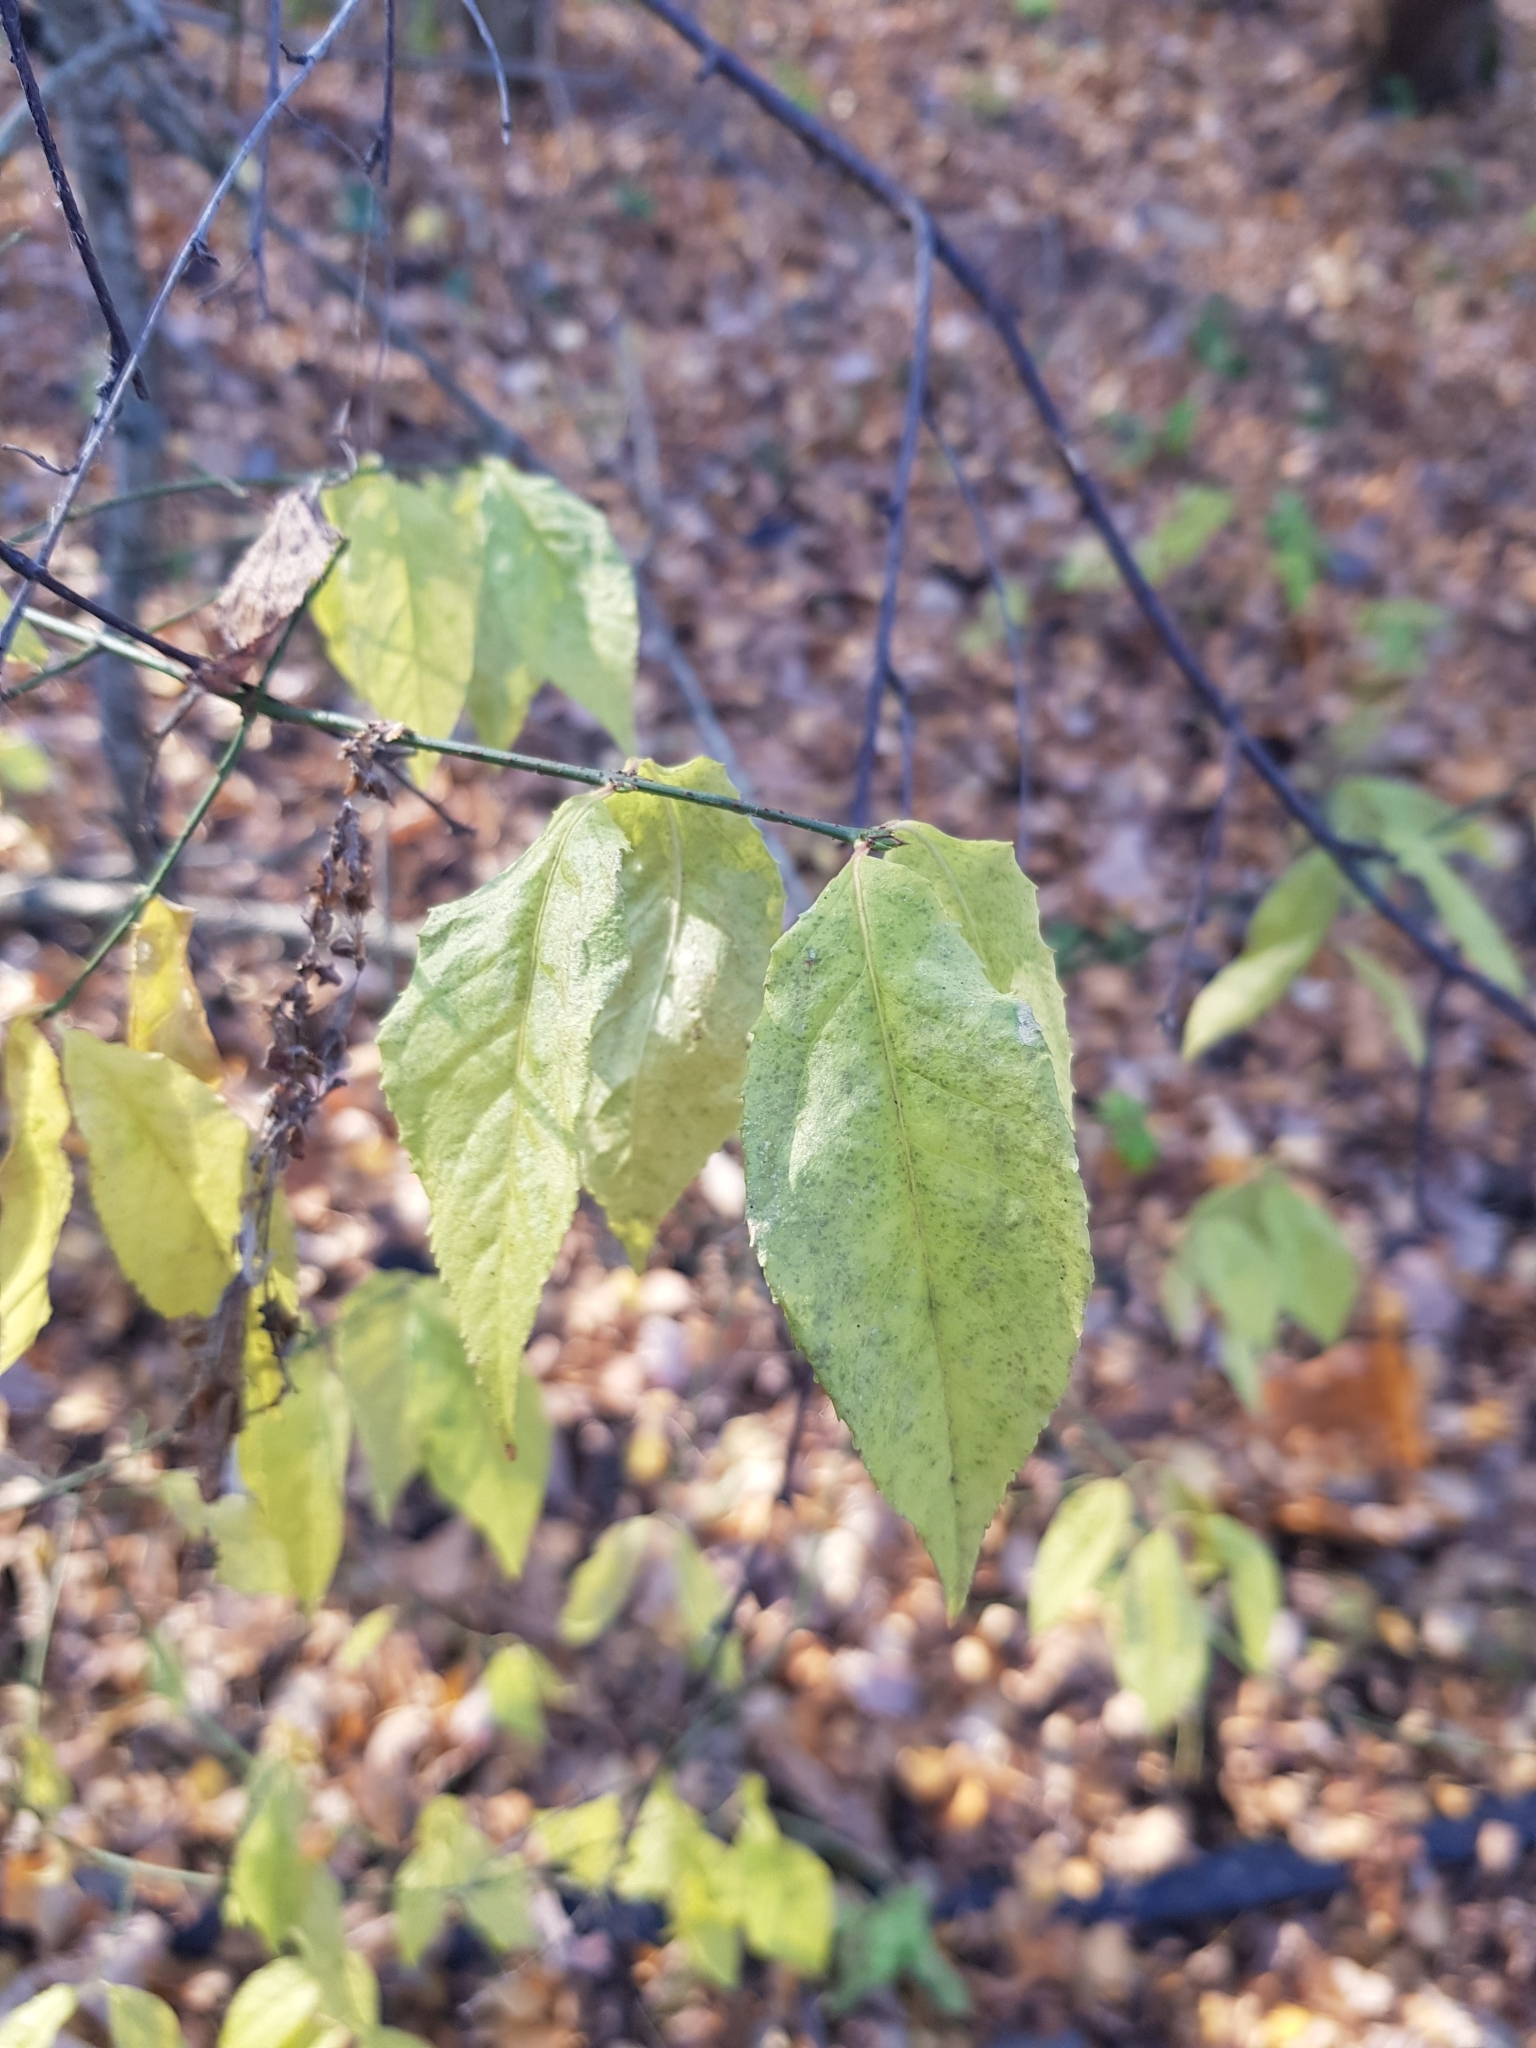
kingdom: Plantae
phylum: Tracheophyta
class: Magnoliopsida
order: Celastrales
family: Celastraceae
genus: Euonymus
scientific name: Euonymus verrucosus
